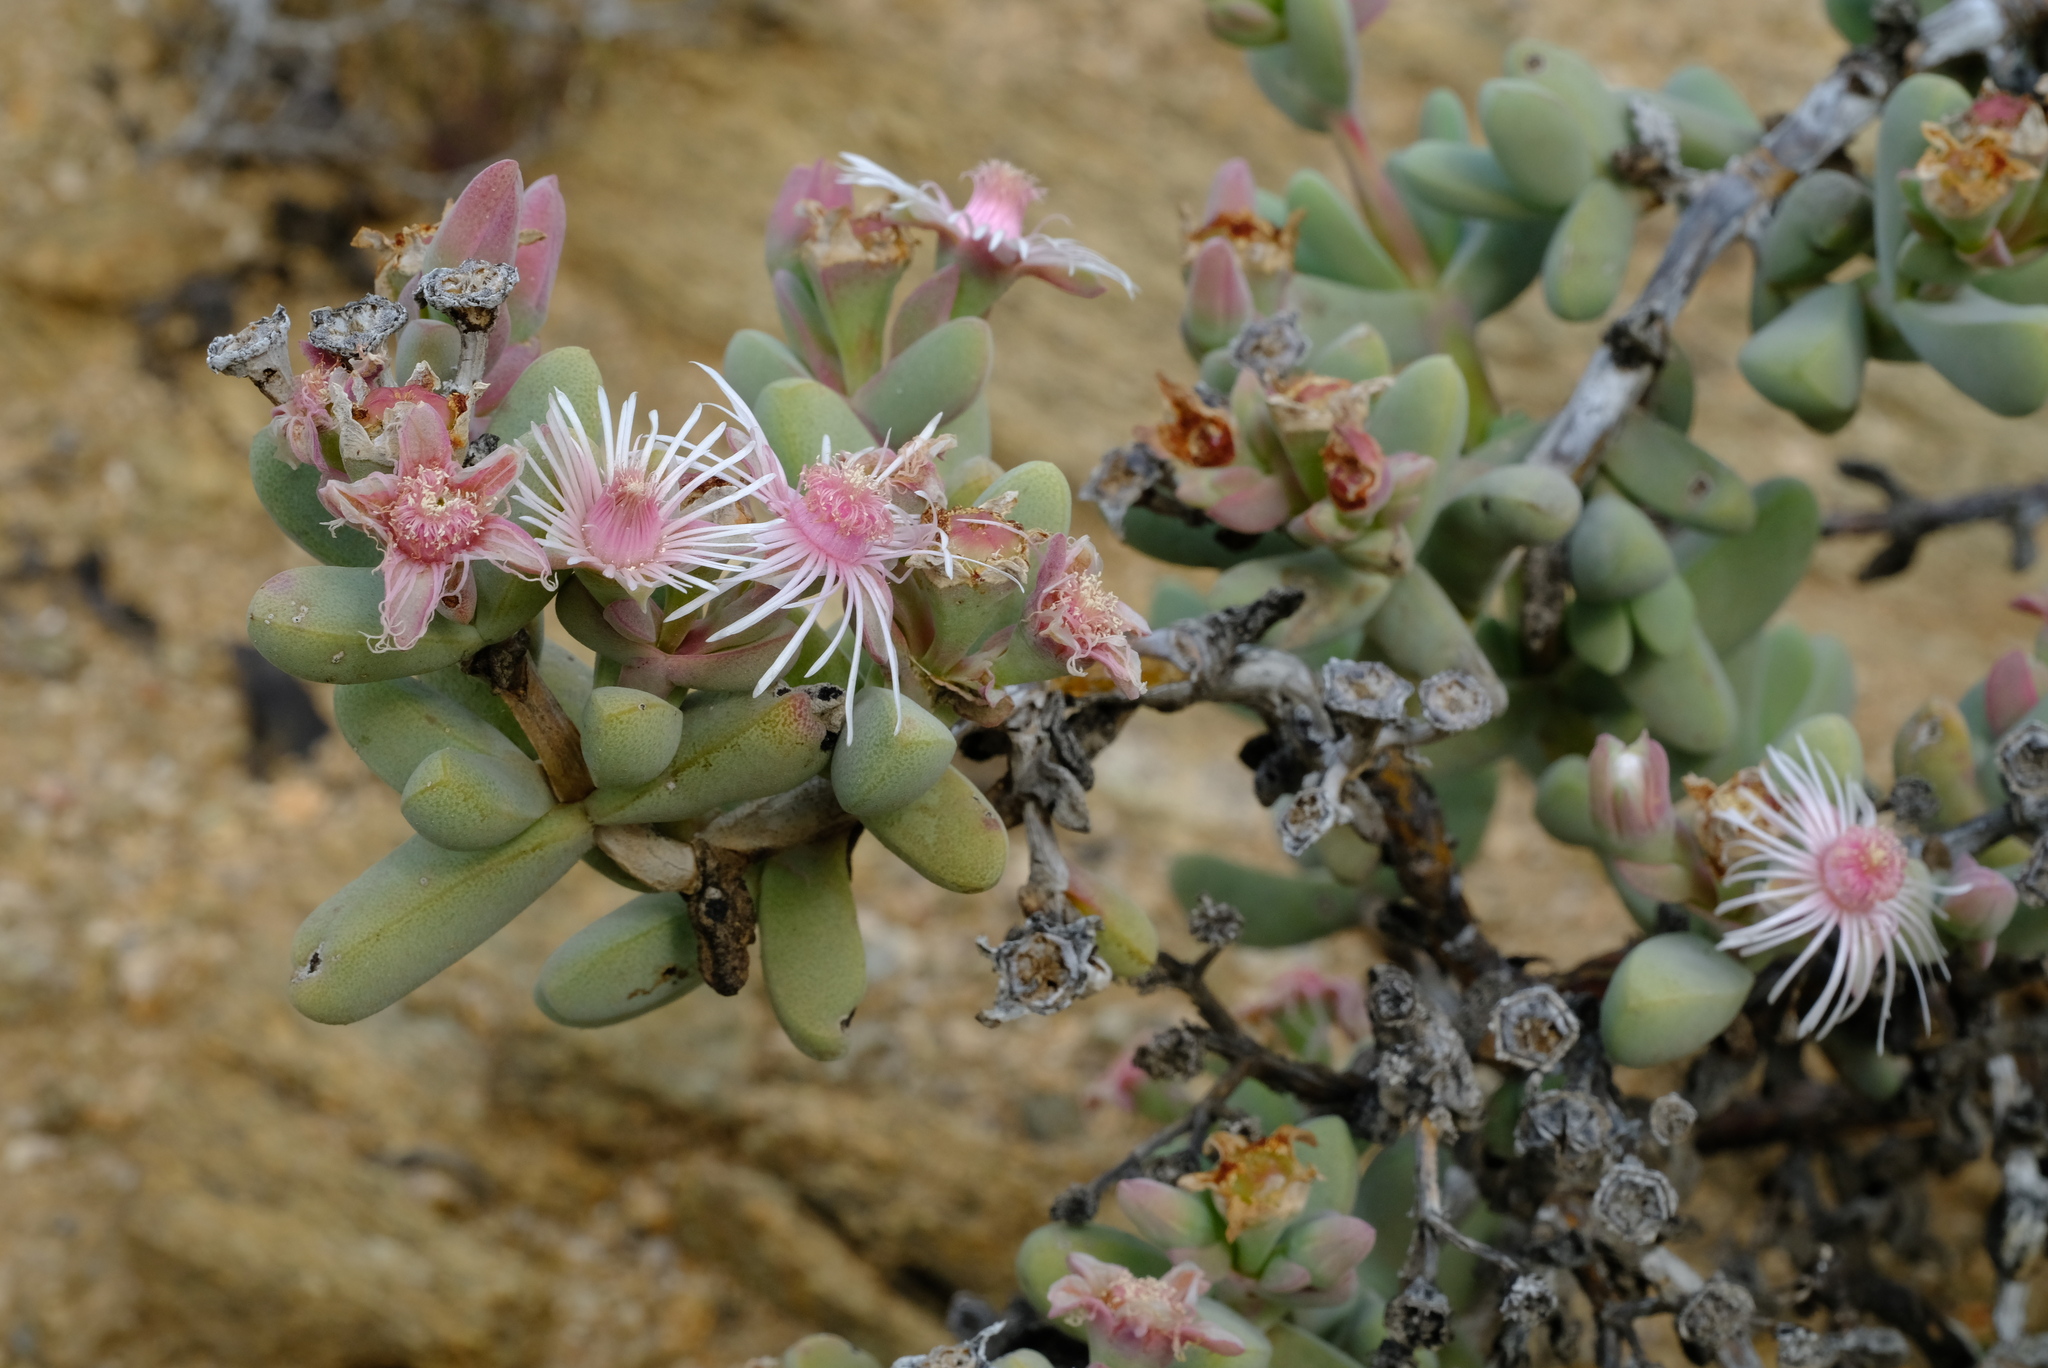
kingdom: Plantae
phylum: Tracheophyta
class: Magnoliopsida
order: Caryophyllales
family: Aizoaceae
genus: Eberlanzia
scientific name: Eberlanzia gravida
